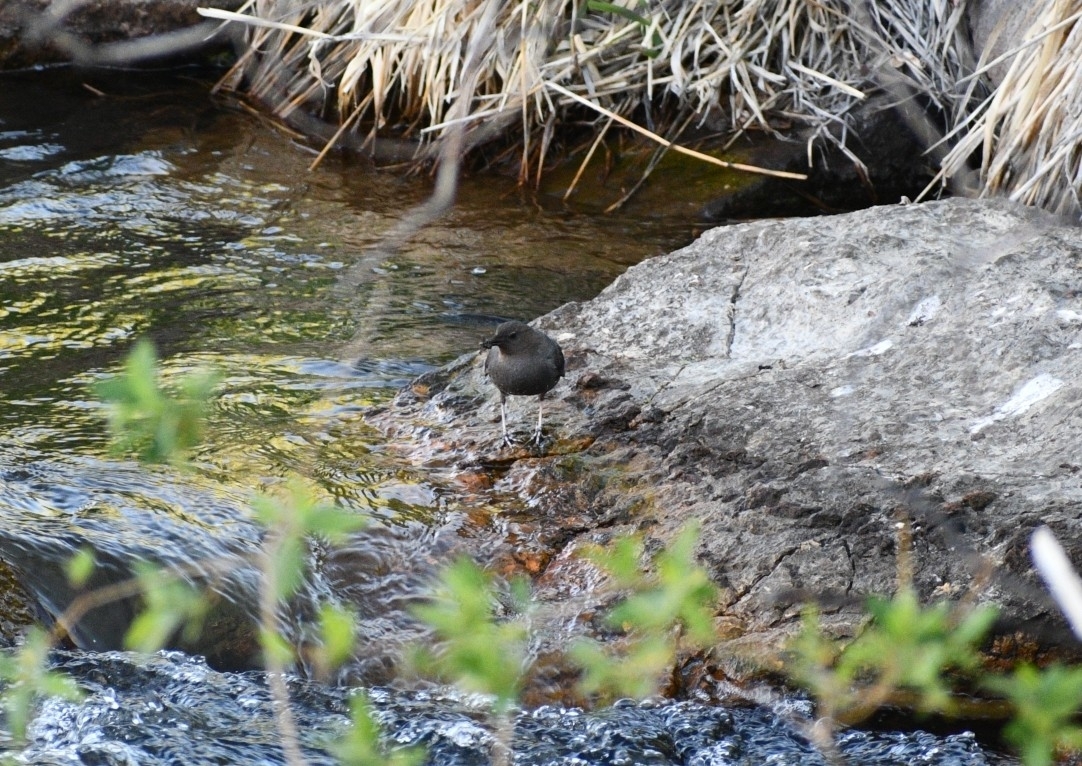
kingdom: Animalia
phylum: Chordata
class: Aves
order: Passeriformes
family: Cinclidae
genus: Cinclus
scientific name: Cinclus mexicanus
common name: American dipper
